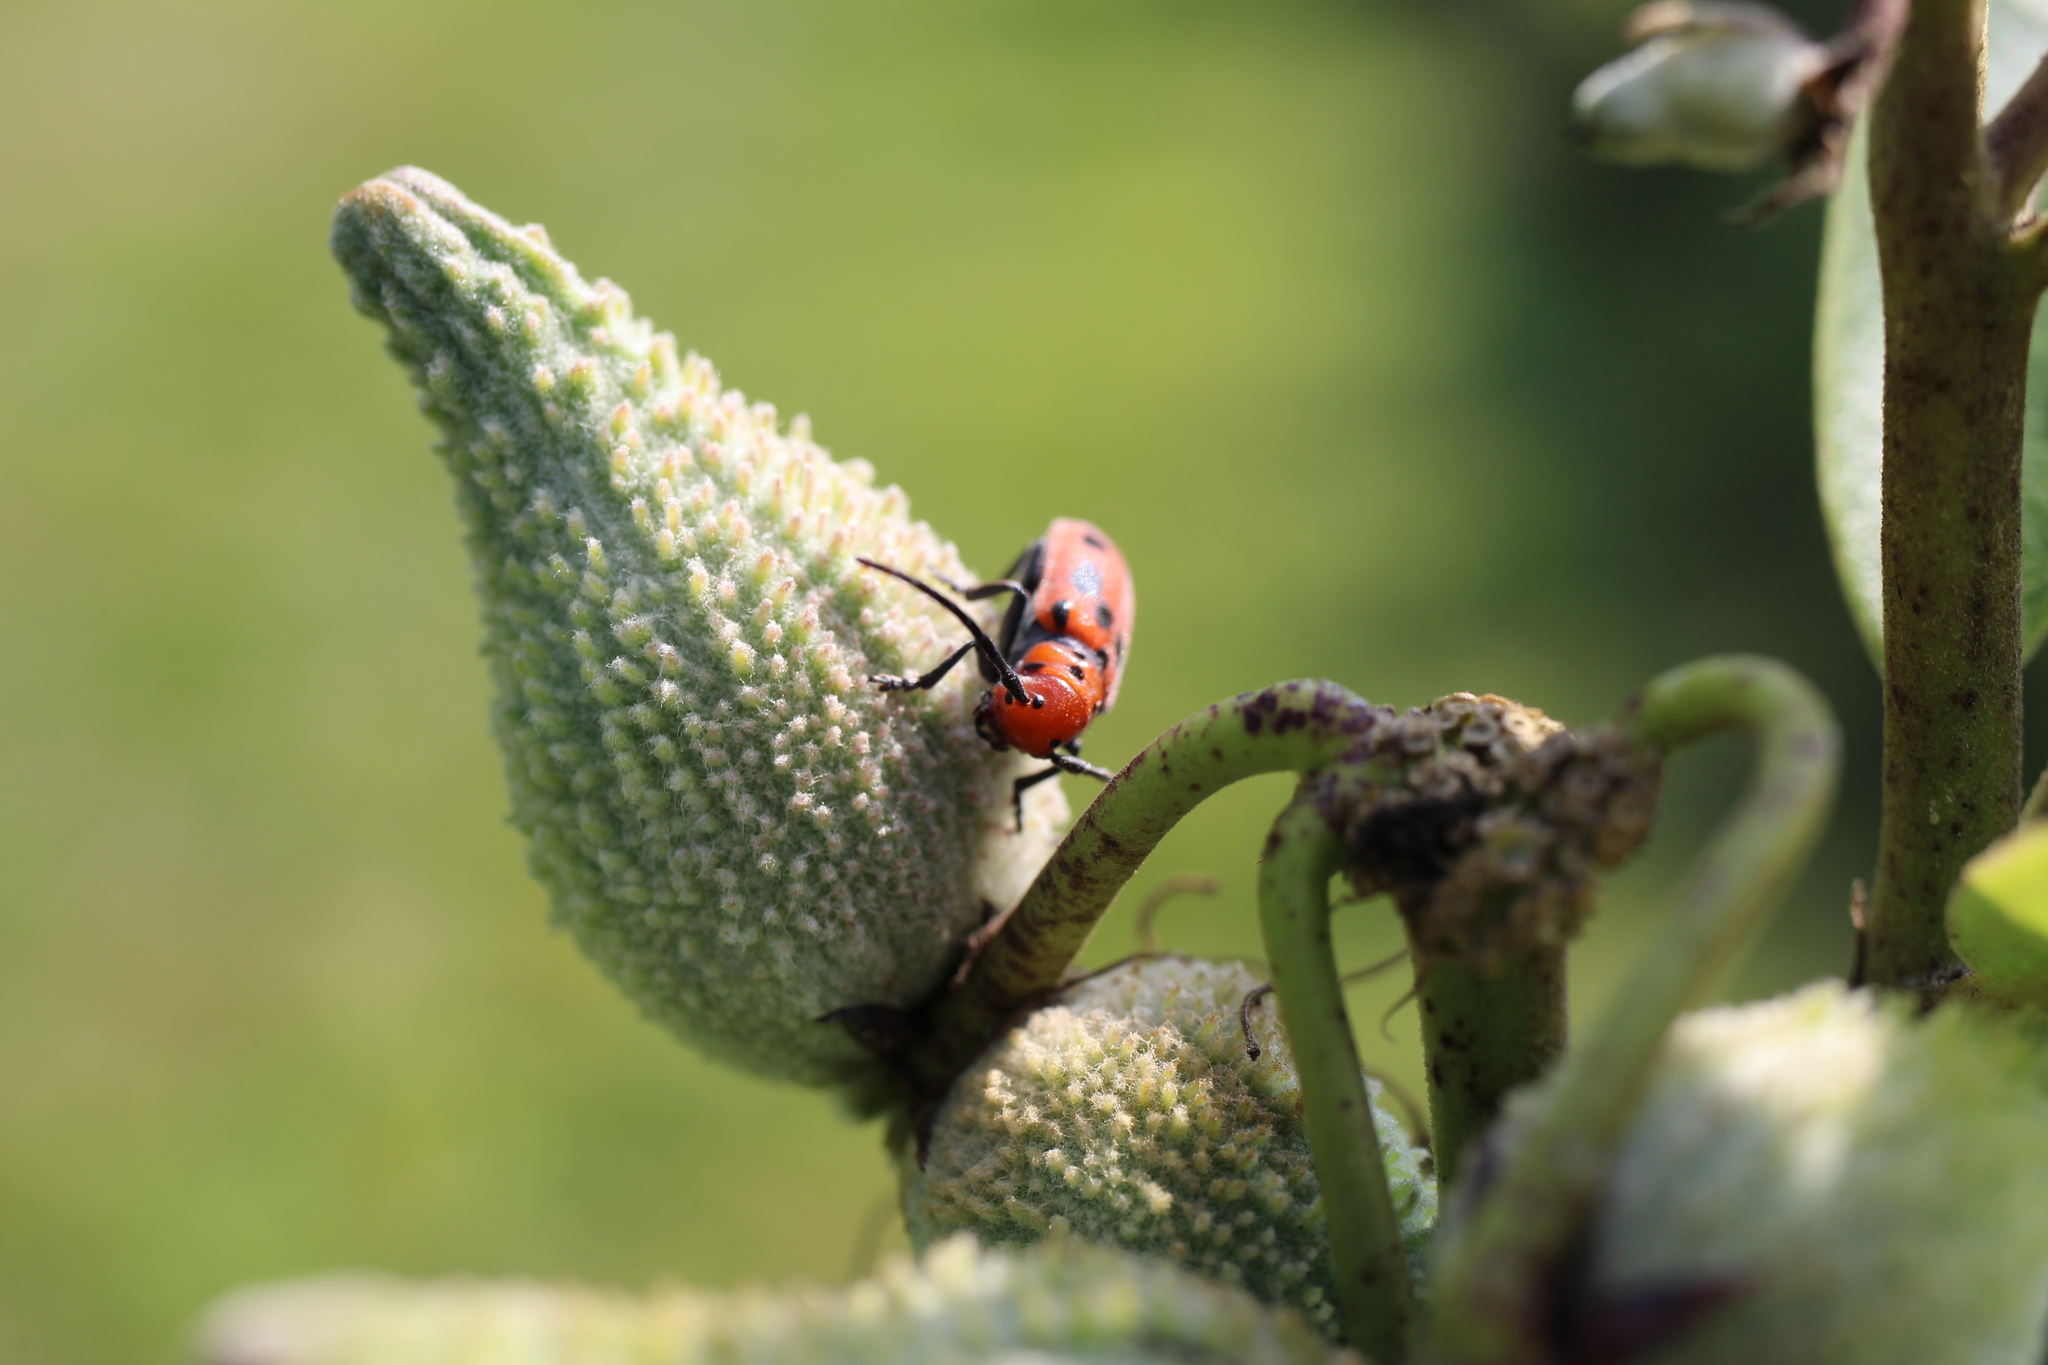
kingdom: Animalia
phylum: Arthropoda
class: Insecta
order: Coleoptera
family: Cerambycidae
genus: Tetraopes
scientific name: Tetraopes tetrophthalmus
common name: Red milkweed beetle
